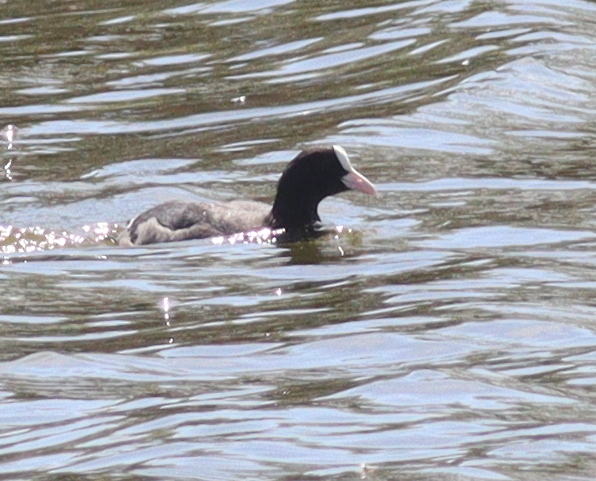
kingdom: Animalia
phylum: Chordata
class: Aves
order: Gruiformes
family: Rallidae
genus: Fulica
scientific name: Fulica atra
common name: Eurasian coot
